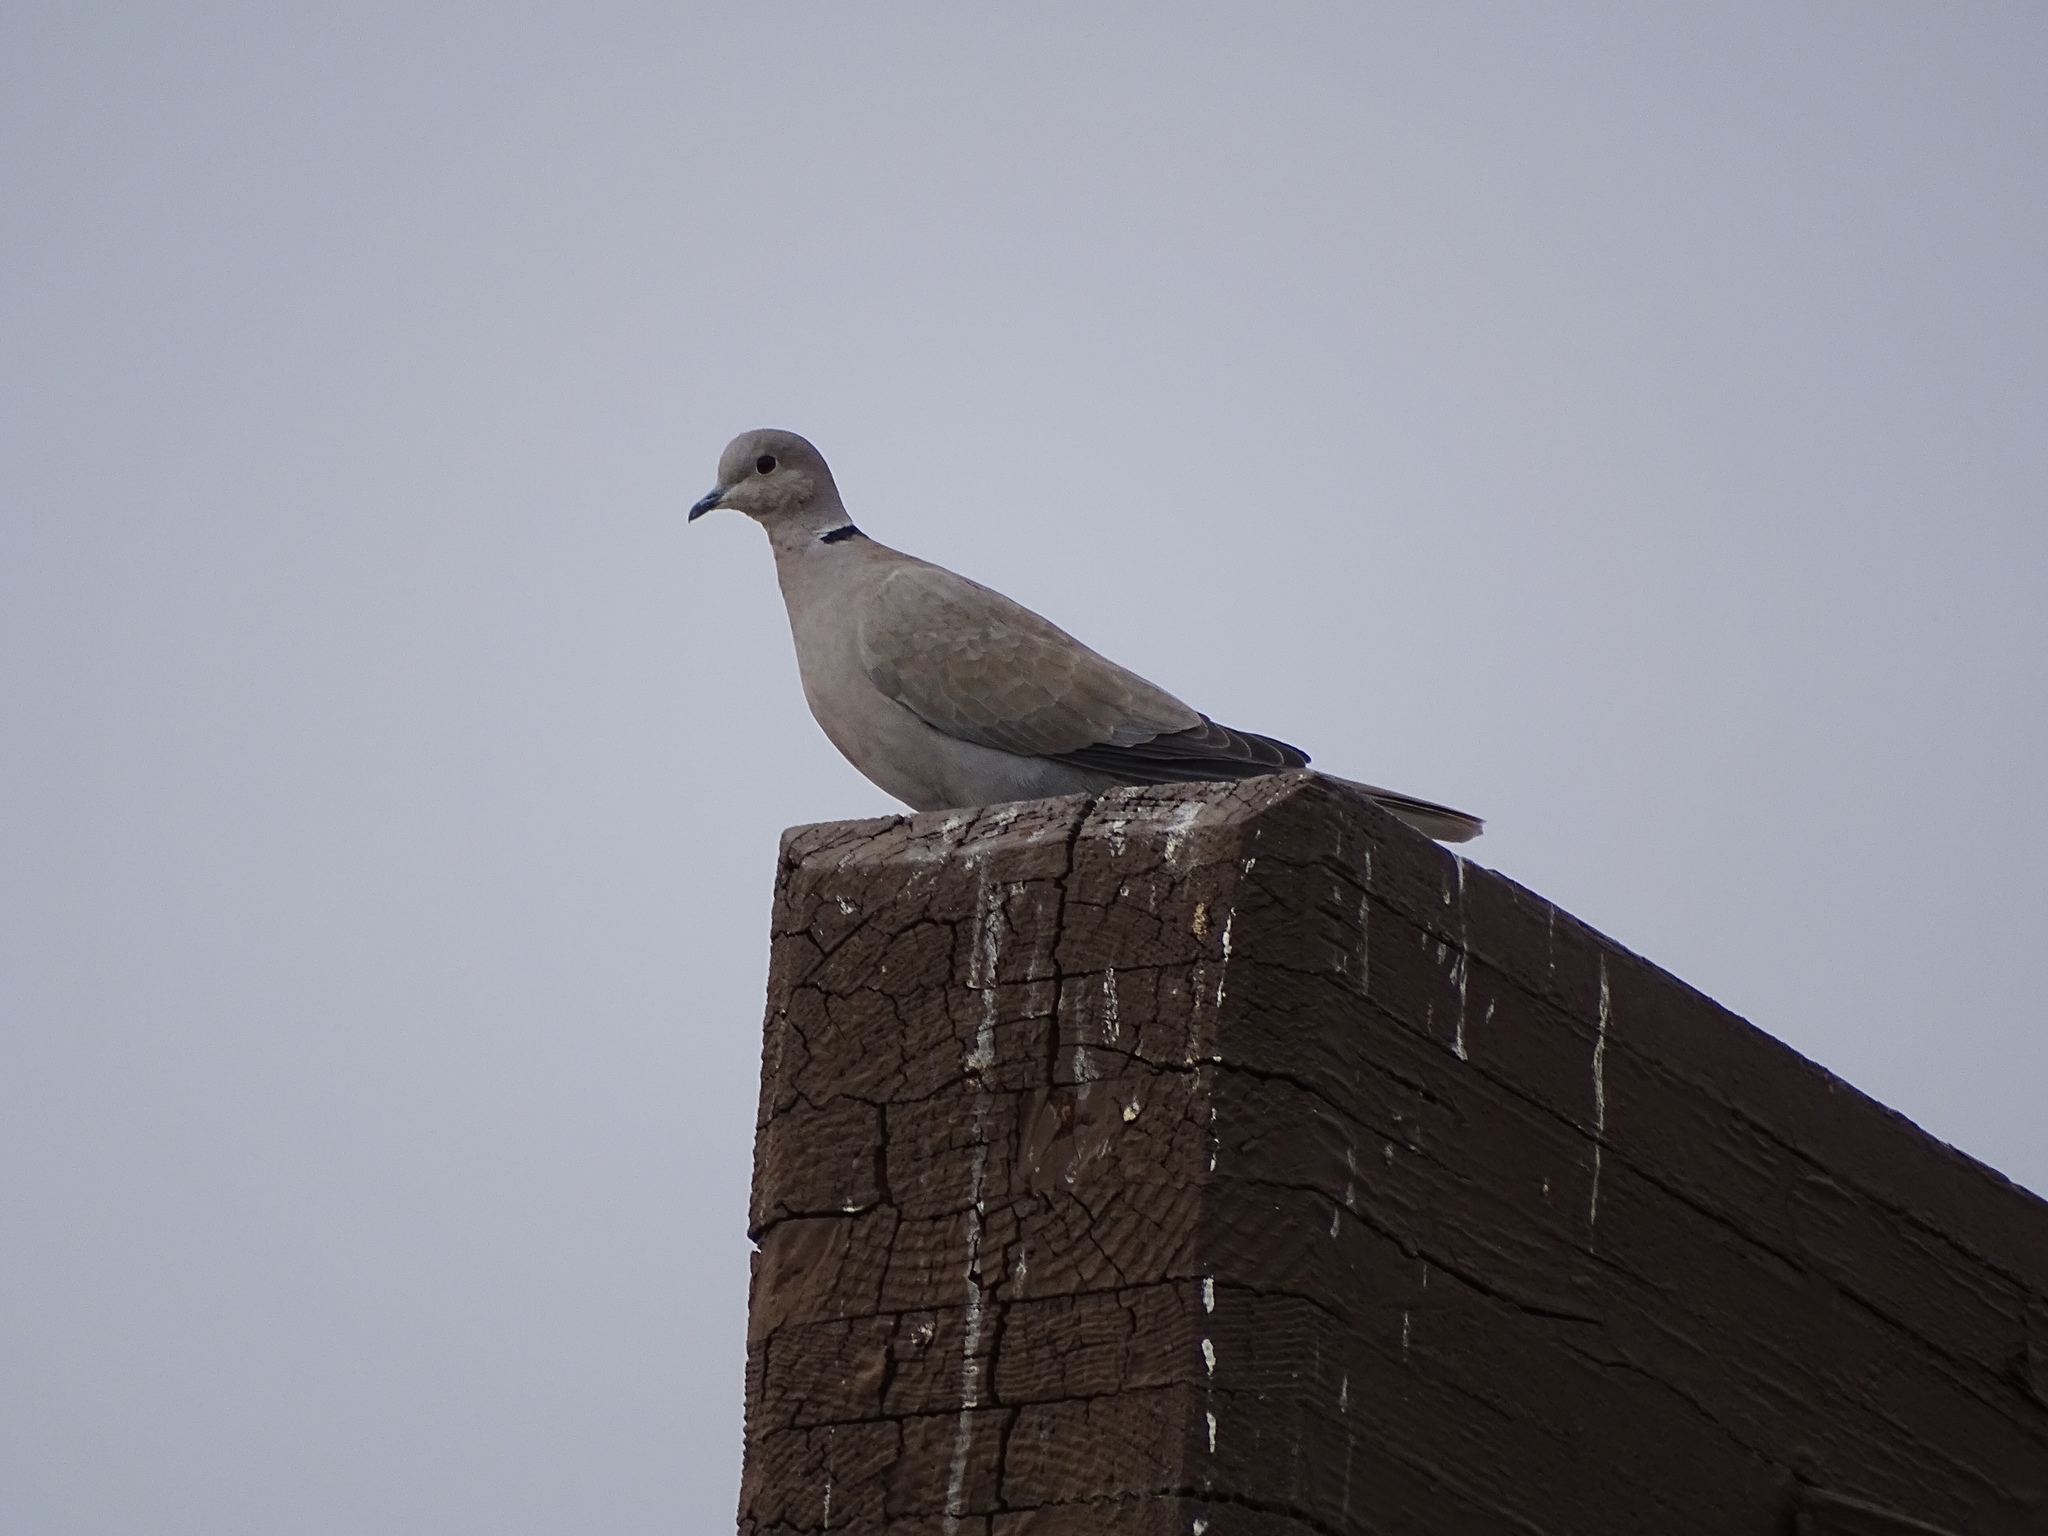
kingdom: Animalia
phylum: Chordata
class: Aves
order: Columbiformes
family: Columbidae
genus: Streptopelia
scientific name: Streptopelia decaocto
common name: Eurasian collared dove
